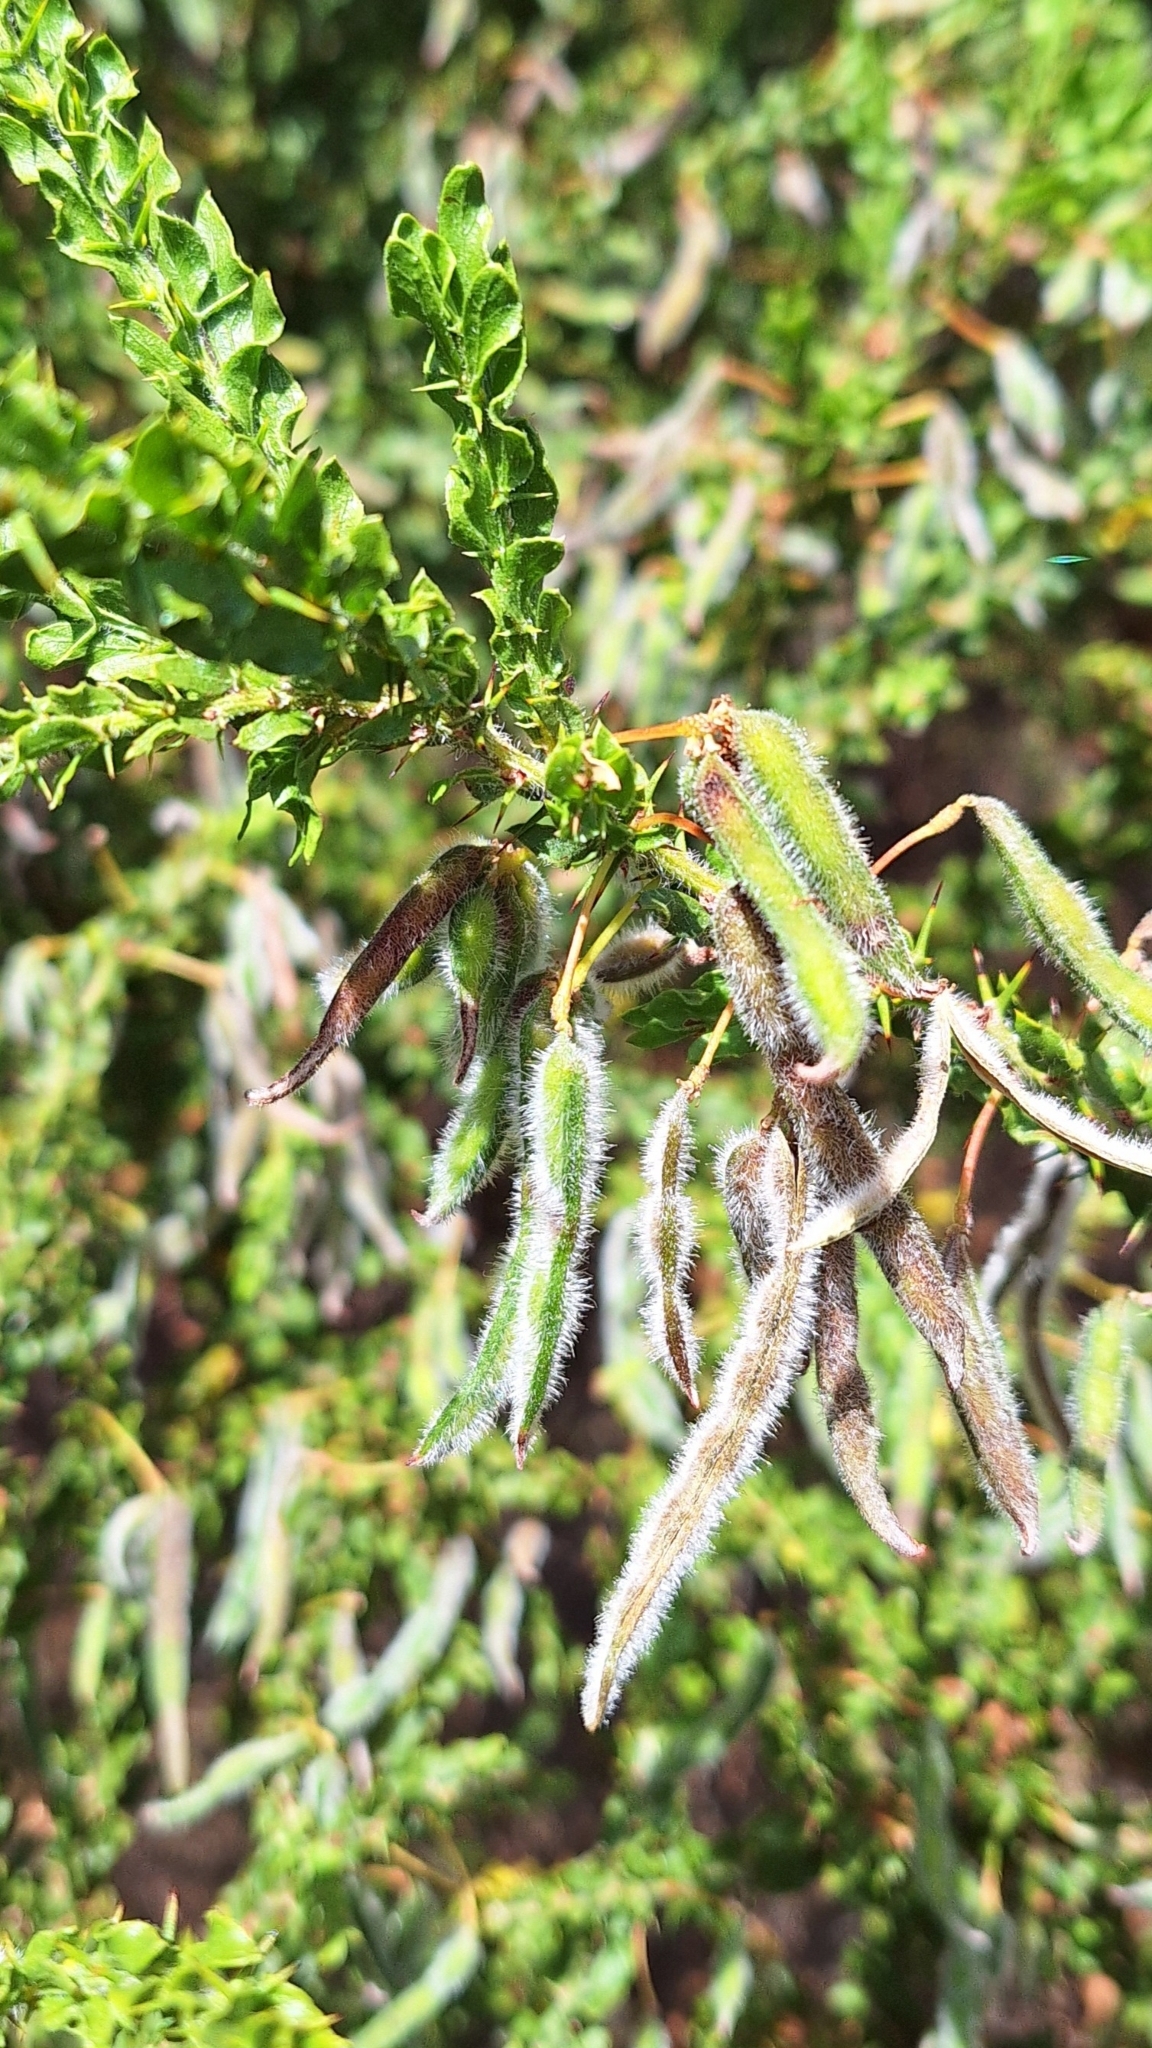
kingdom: Plantae
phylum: Tracheophyta
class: Magnoliopsida
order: Fabales
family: Fabaceae
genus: Acacia
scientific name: Acacia paradoxa
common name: Paradox acacia
